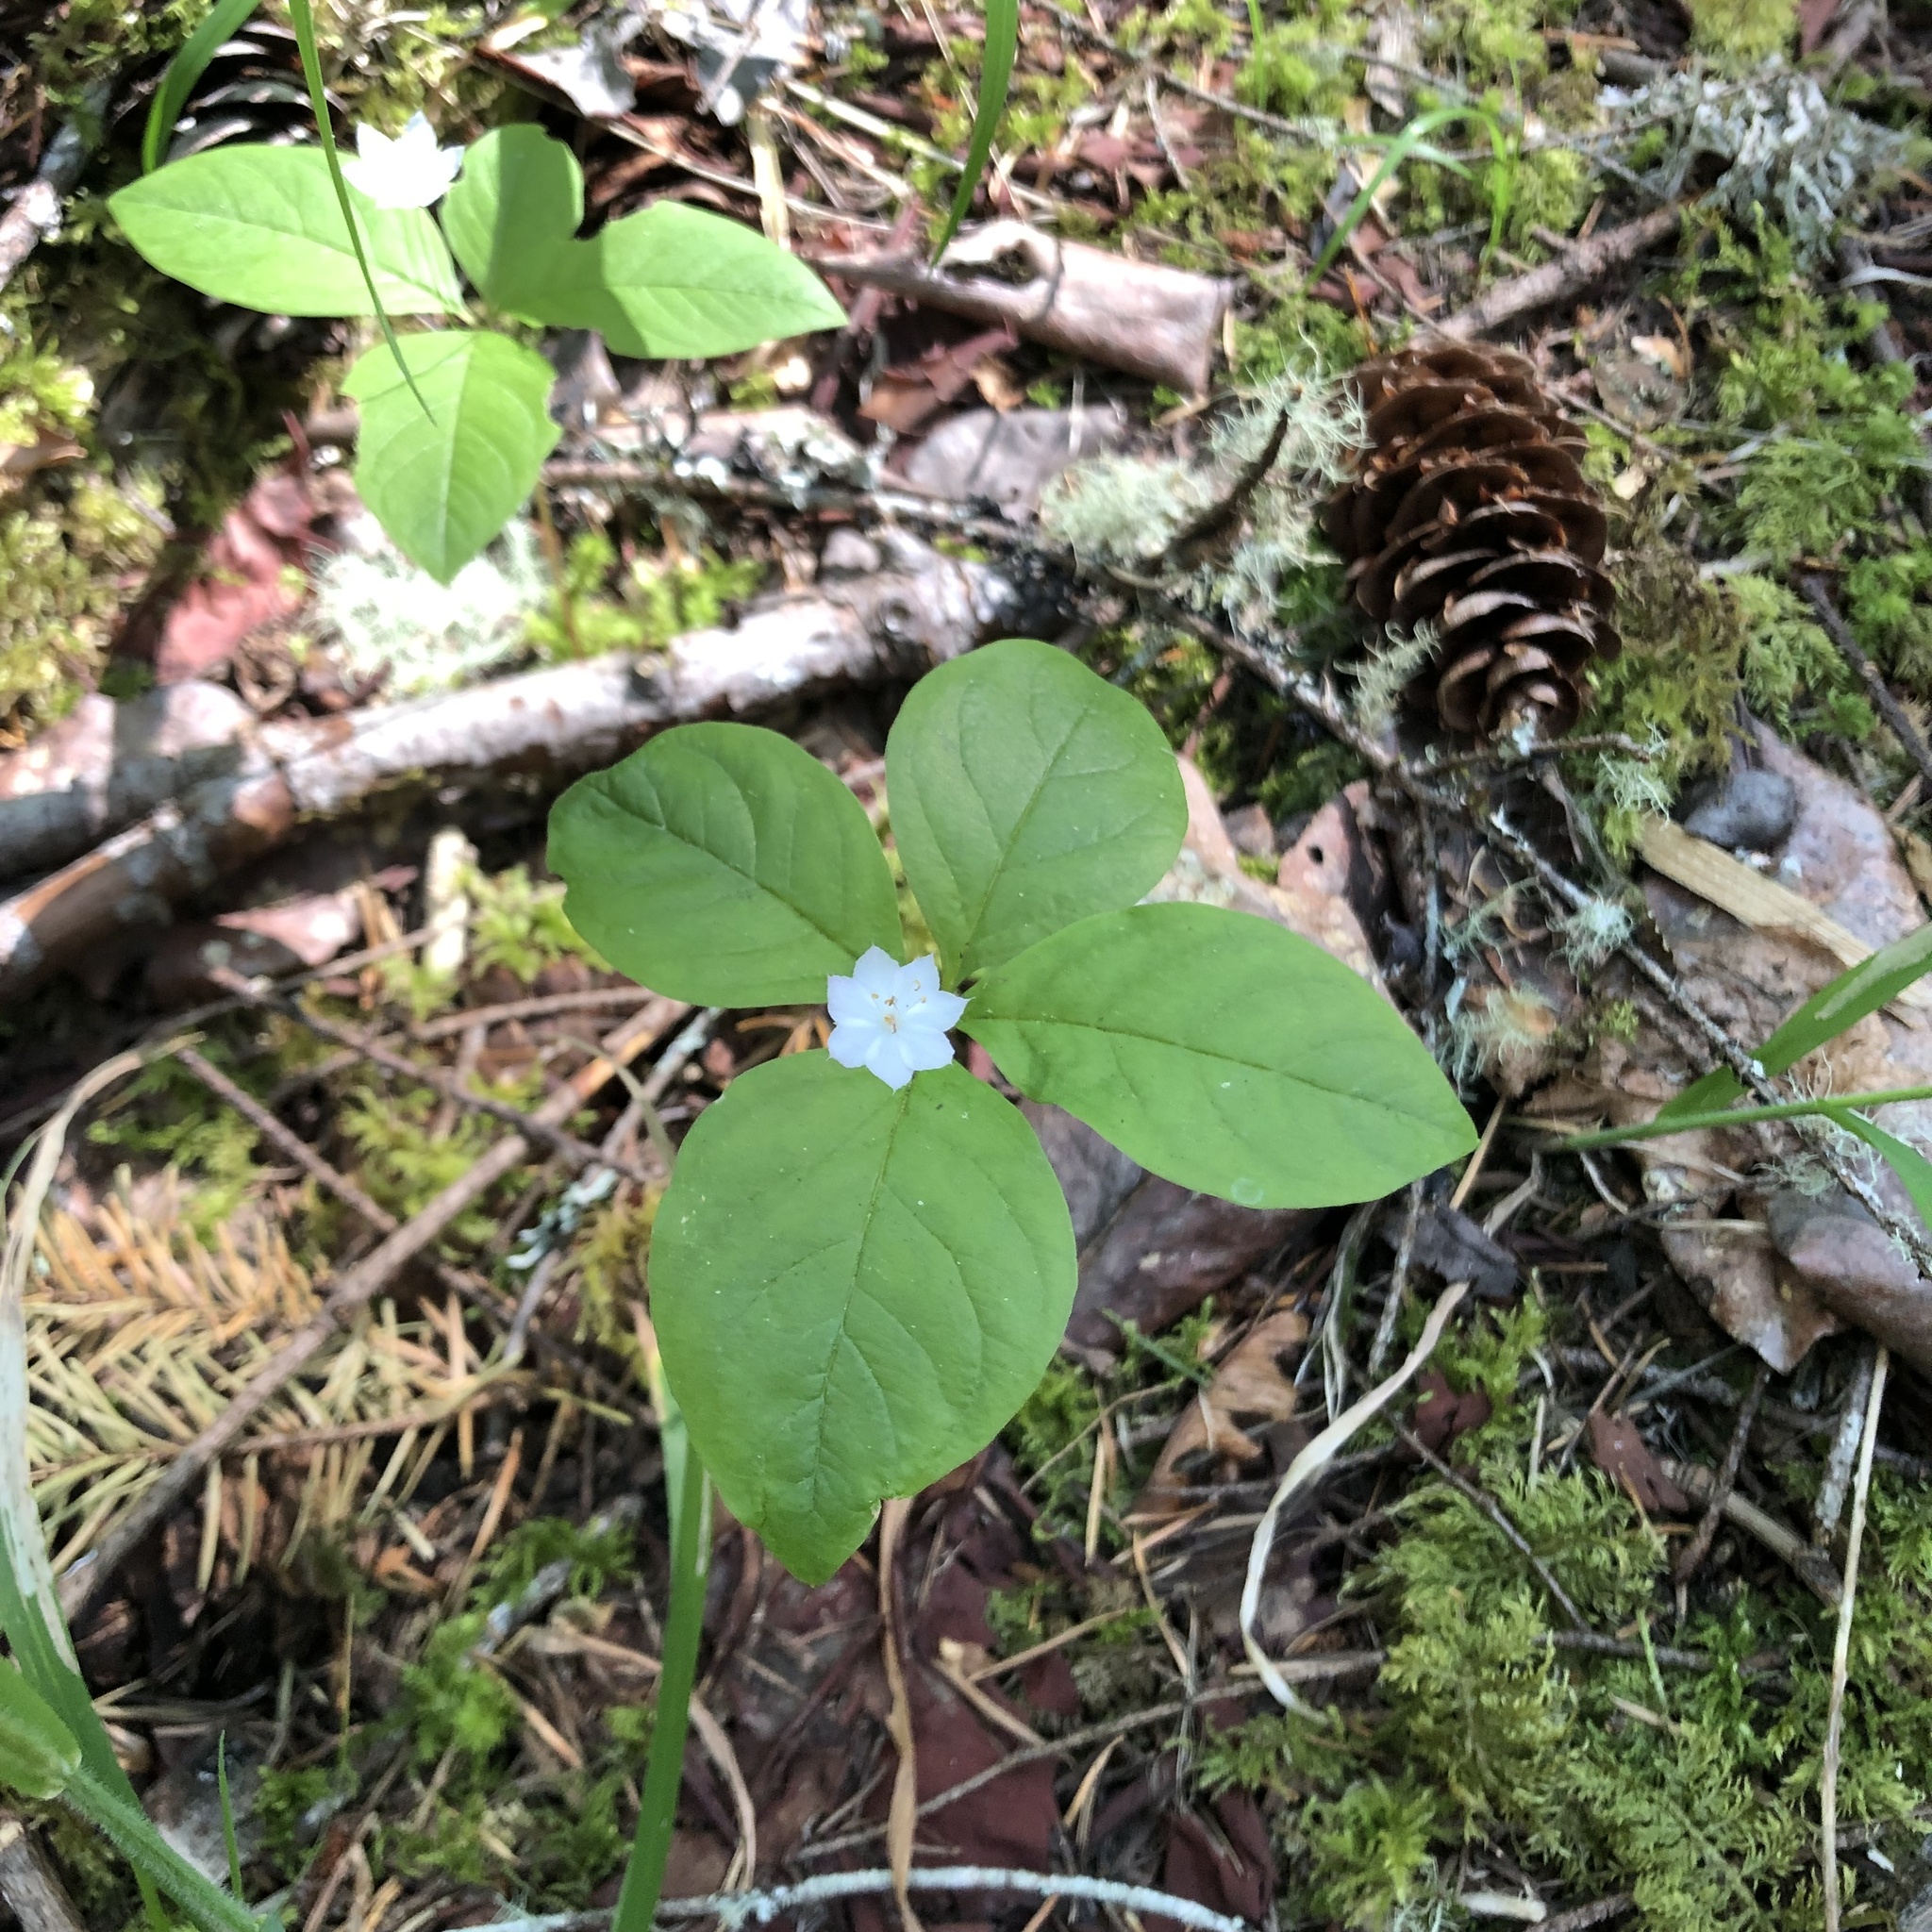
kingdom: Plantae
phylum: Tracheophyta
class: Magnoliopsida
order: Ericales
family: Primulaceae
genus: Lysimachia
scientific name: Lysimachia latifolia
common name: Pacific starflower
